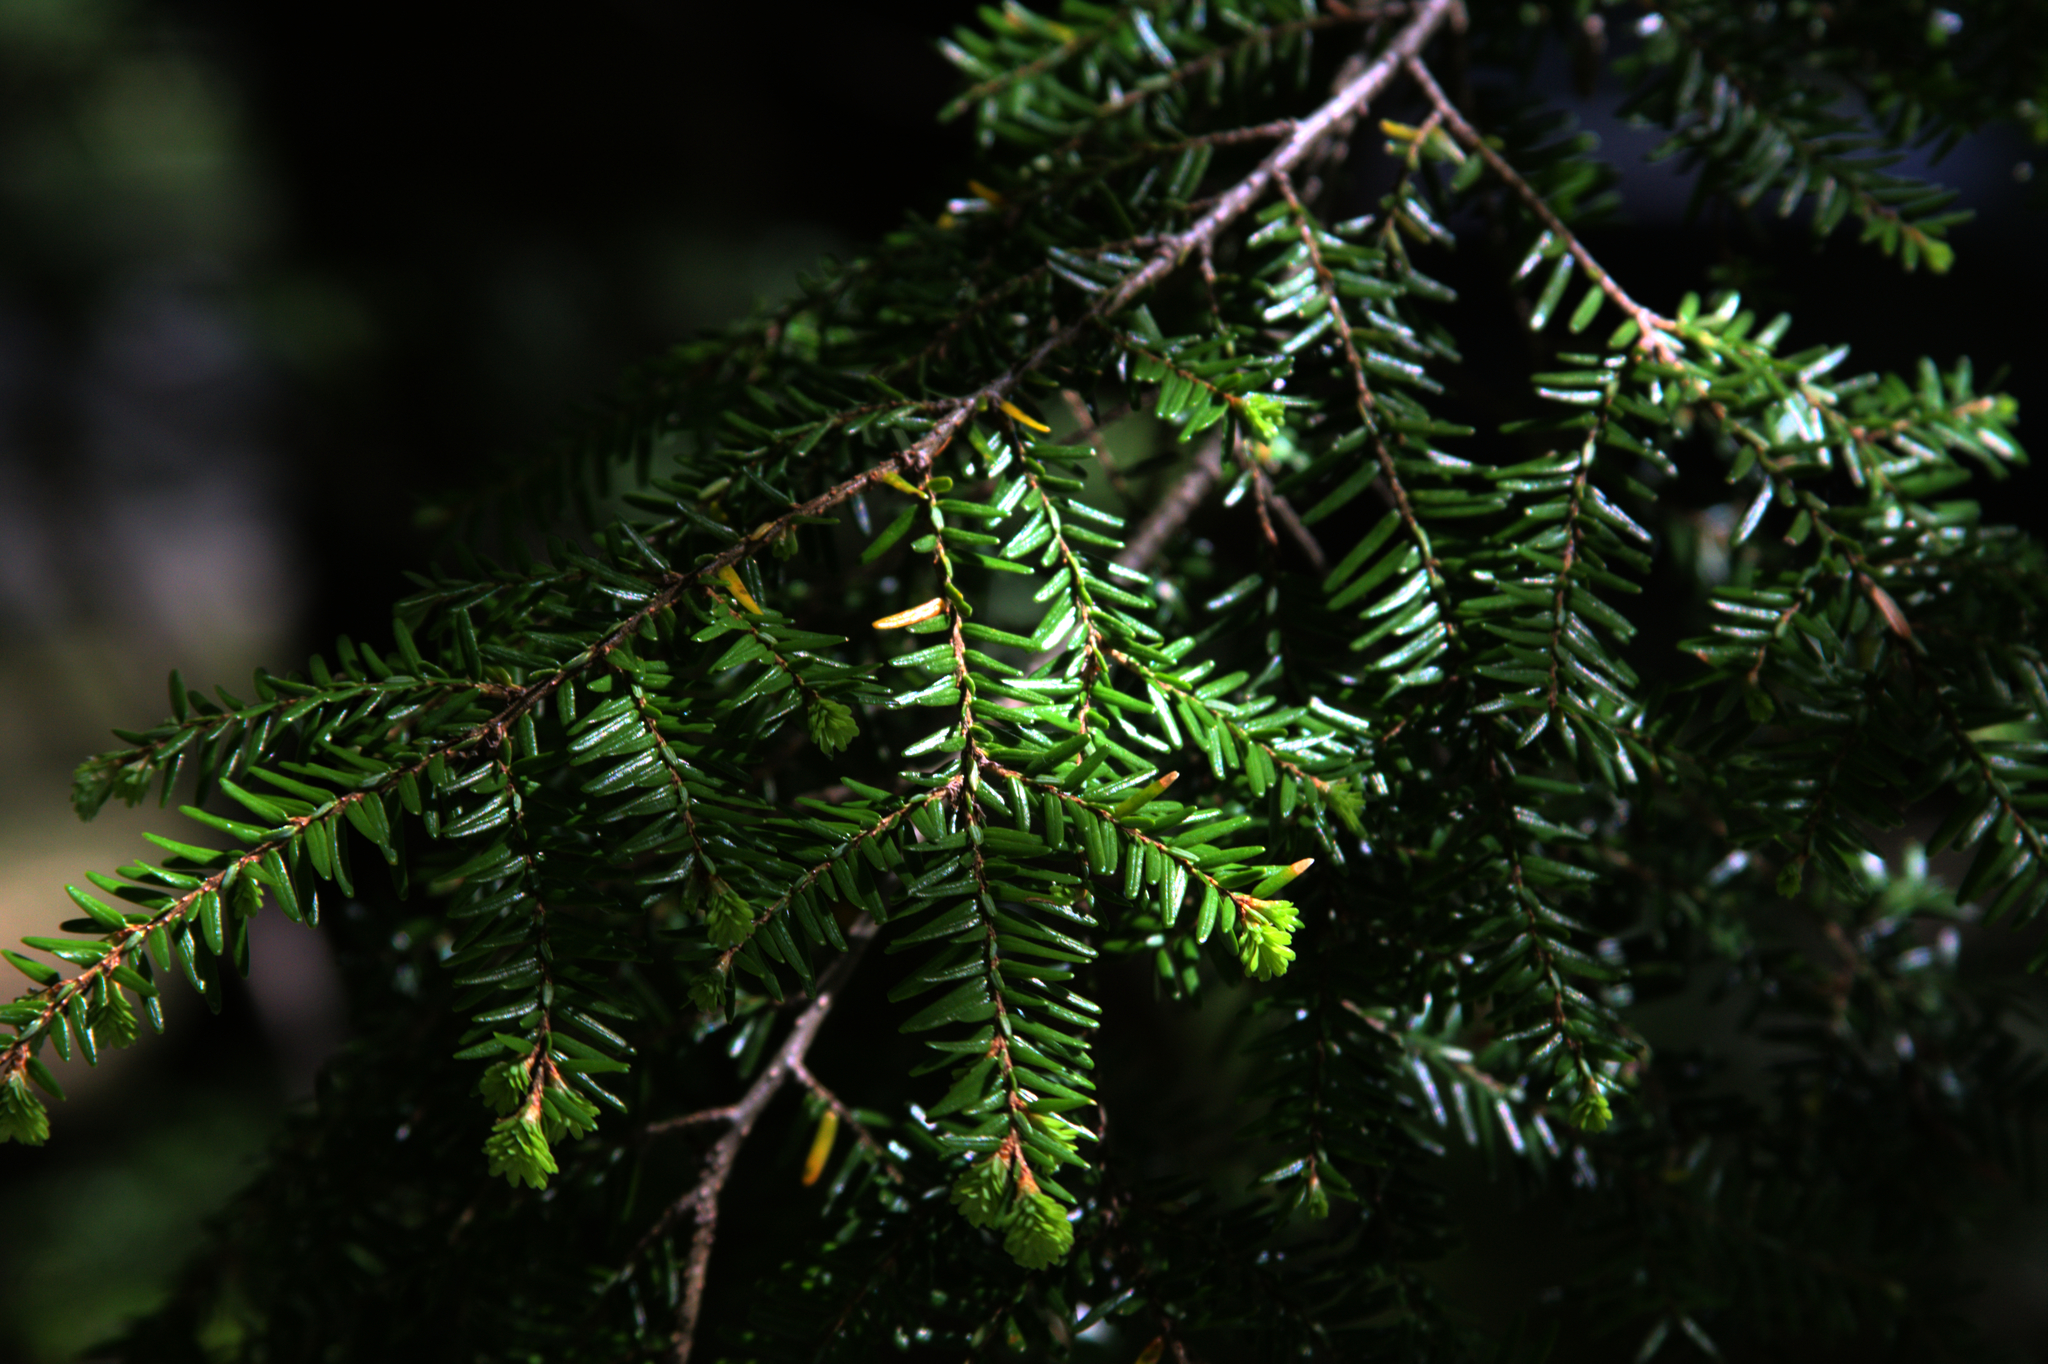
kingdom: Plantae
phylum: Tracheophyta
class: Pinopsida
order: Pinales
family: Pinaceae
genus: Tsuga
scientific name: Tsuga canadensis
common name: Eastern hemlock
